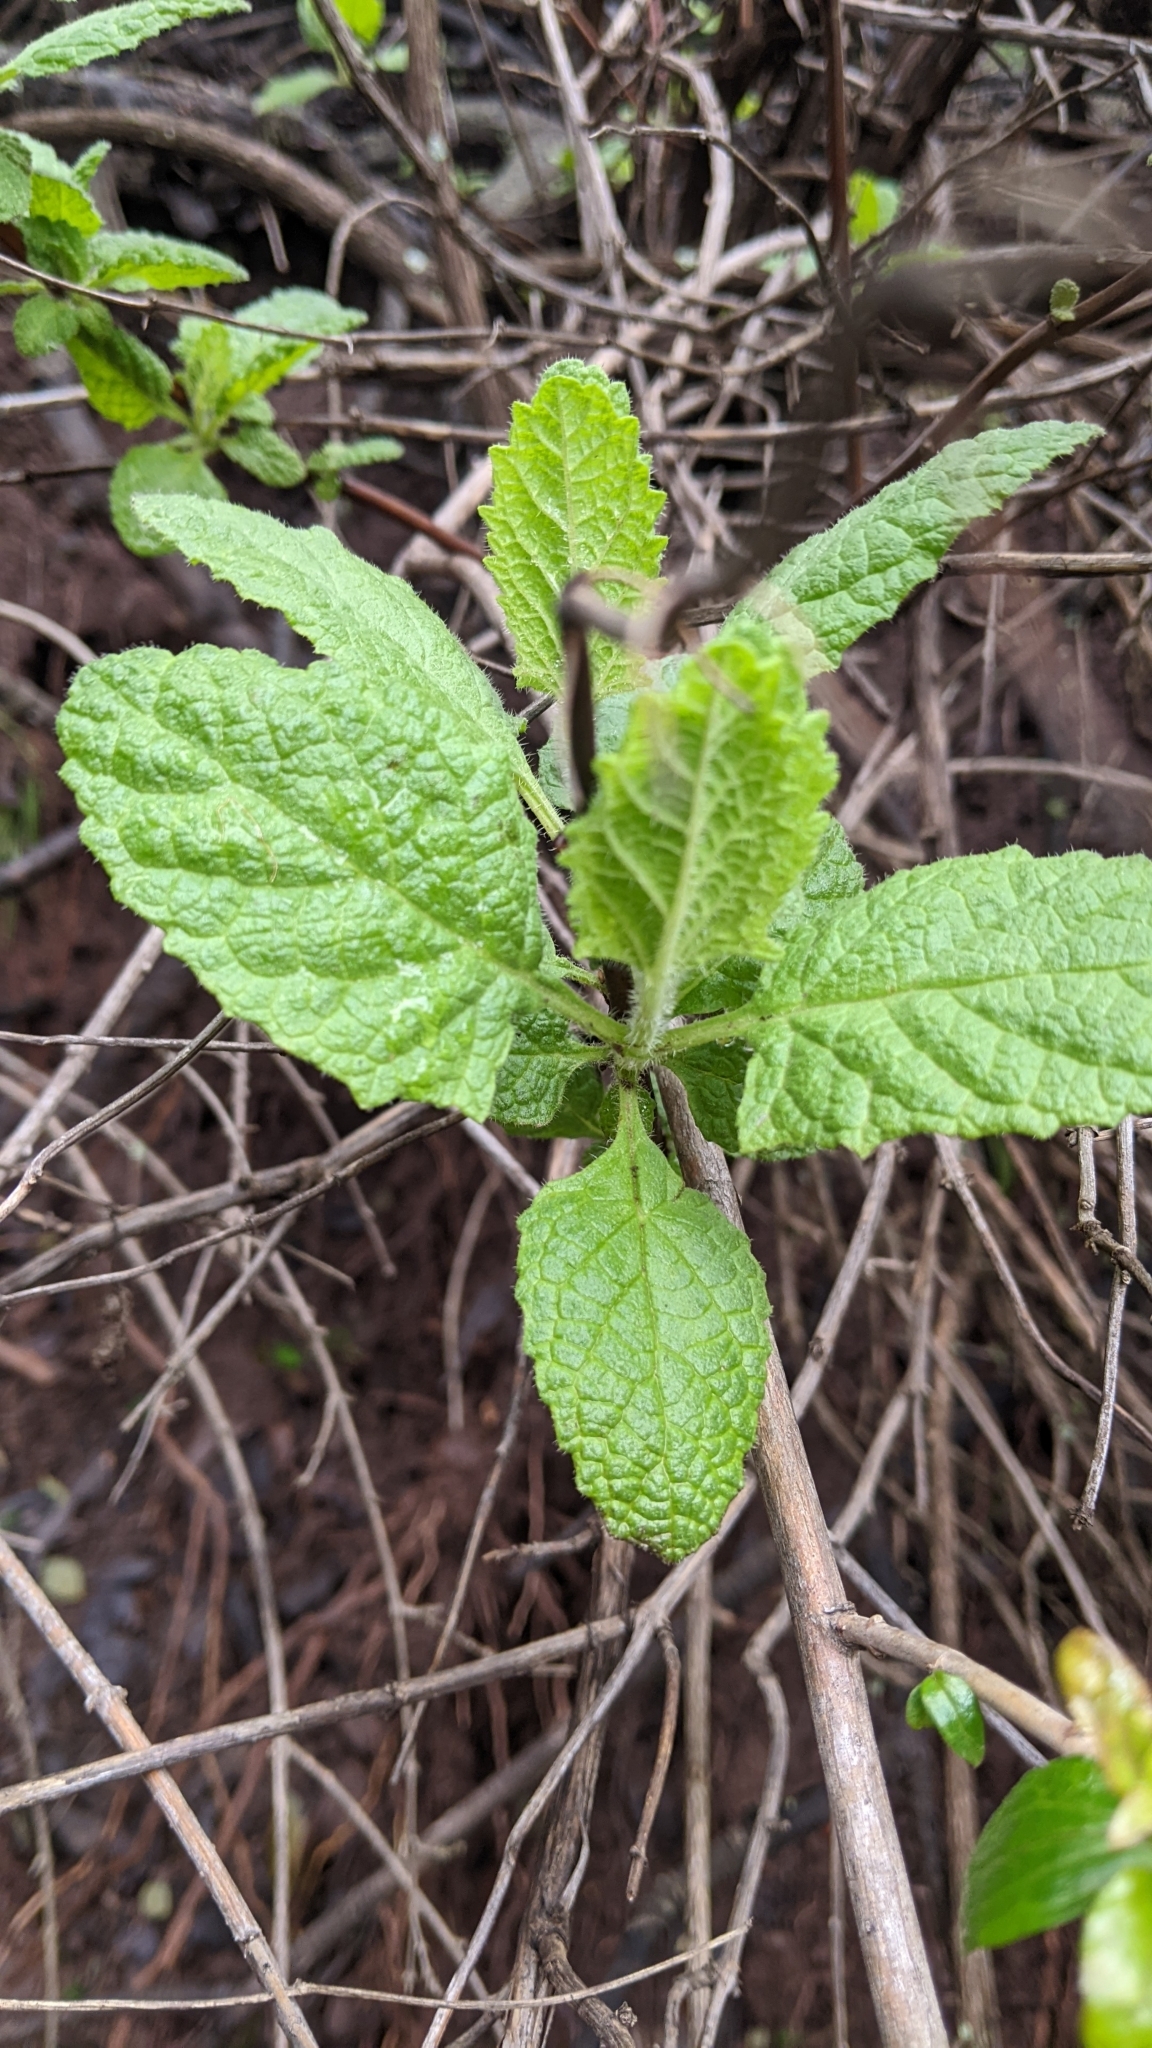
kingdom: Plantae
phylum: Tracheophyta
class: Magnoliopsida
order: Lamiales
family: Lamiaceae
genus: Lepechinia
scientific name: Lepechinia rossii
